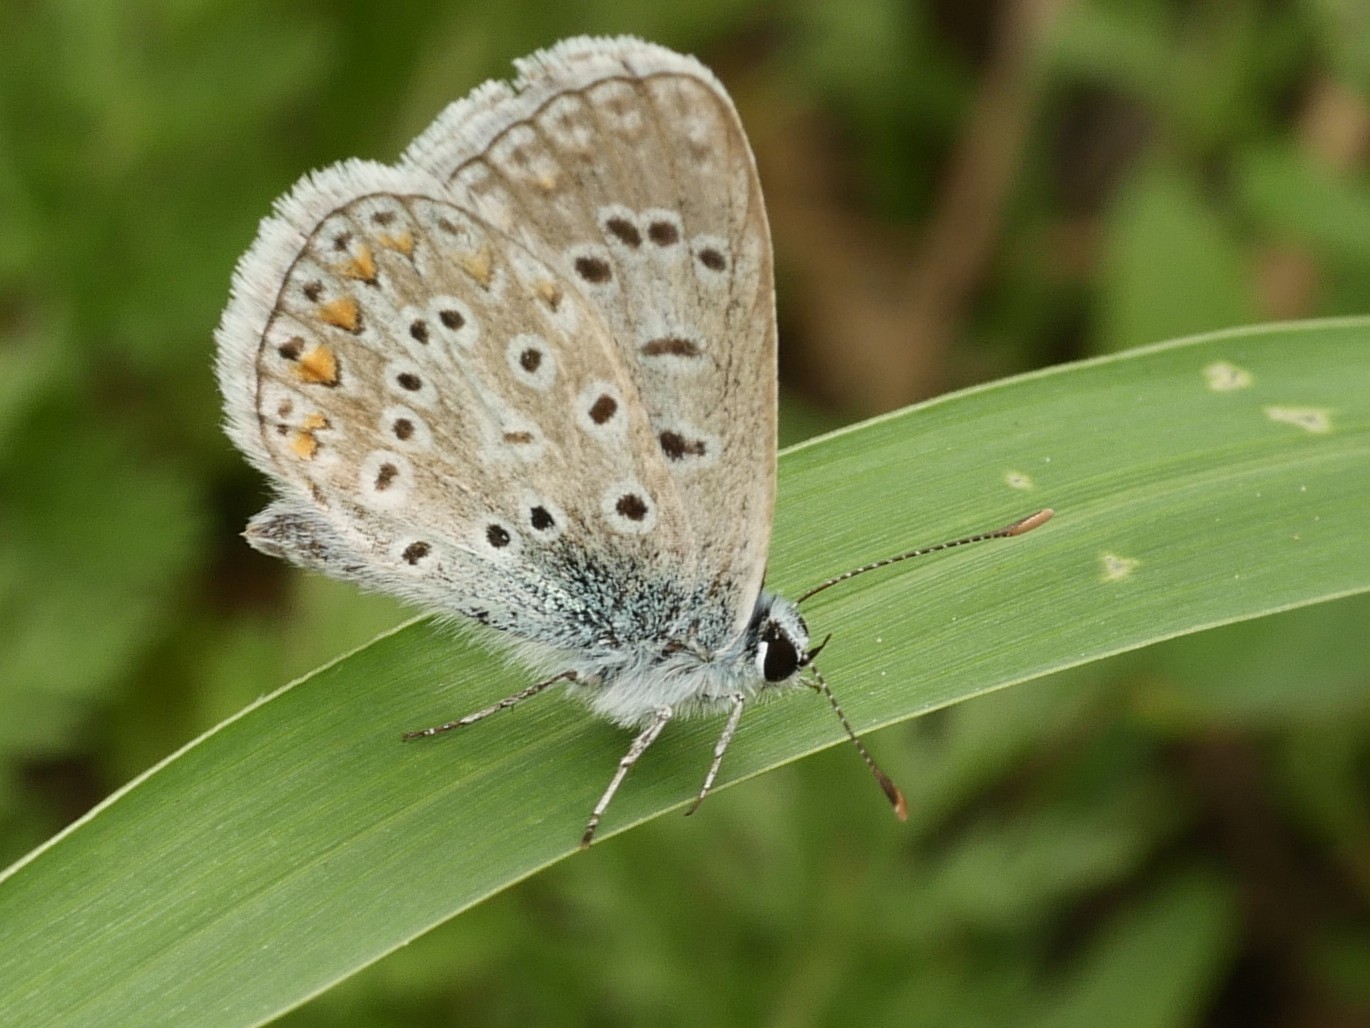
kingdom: Animalia
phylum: Arthropoda
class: Insecta
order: Lepidoptera
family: Lycaenidae
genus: Polyommatus
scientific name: Polyommatus icarus
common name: Common blue
